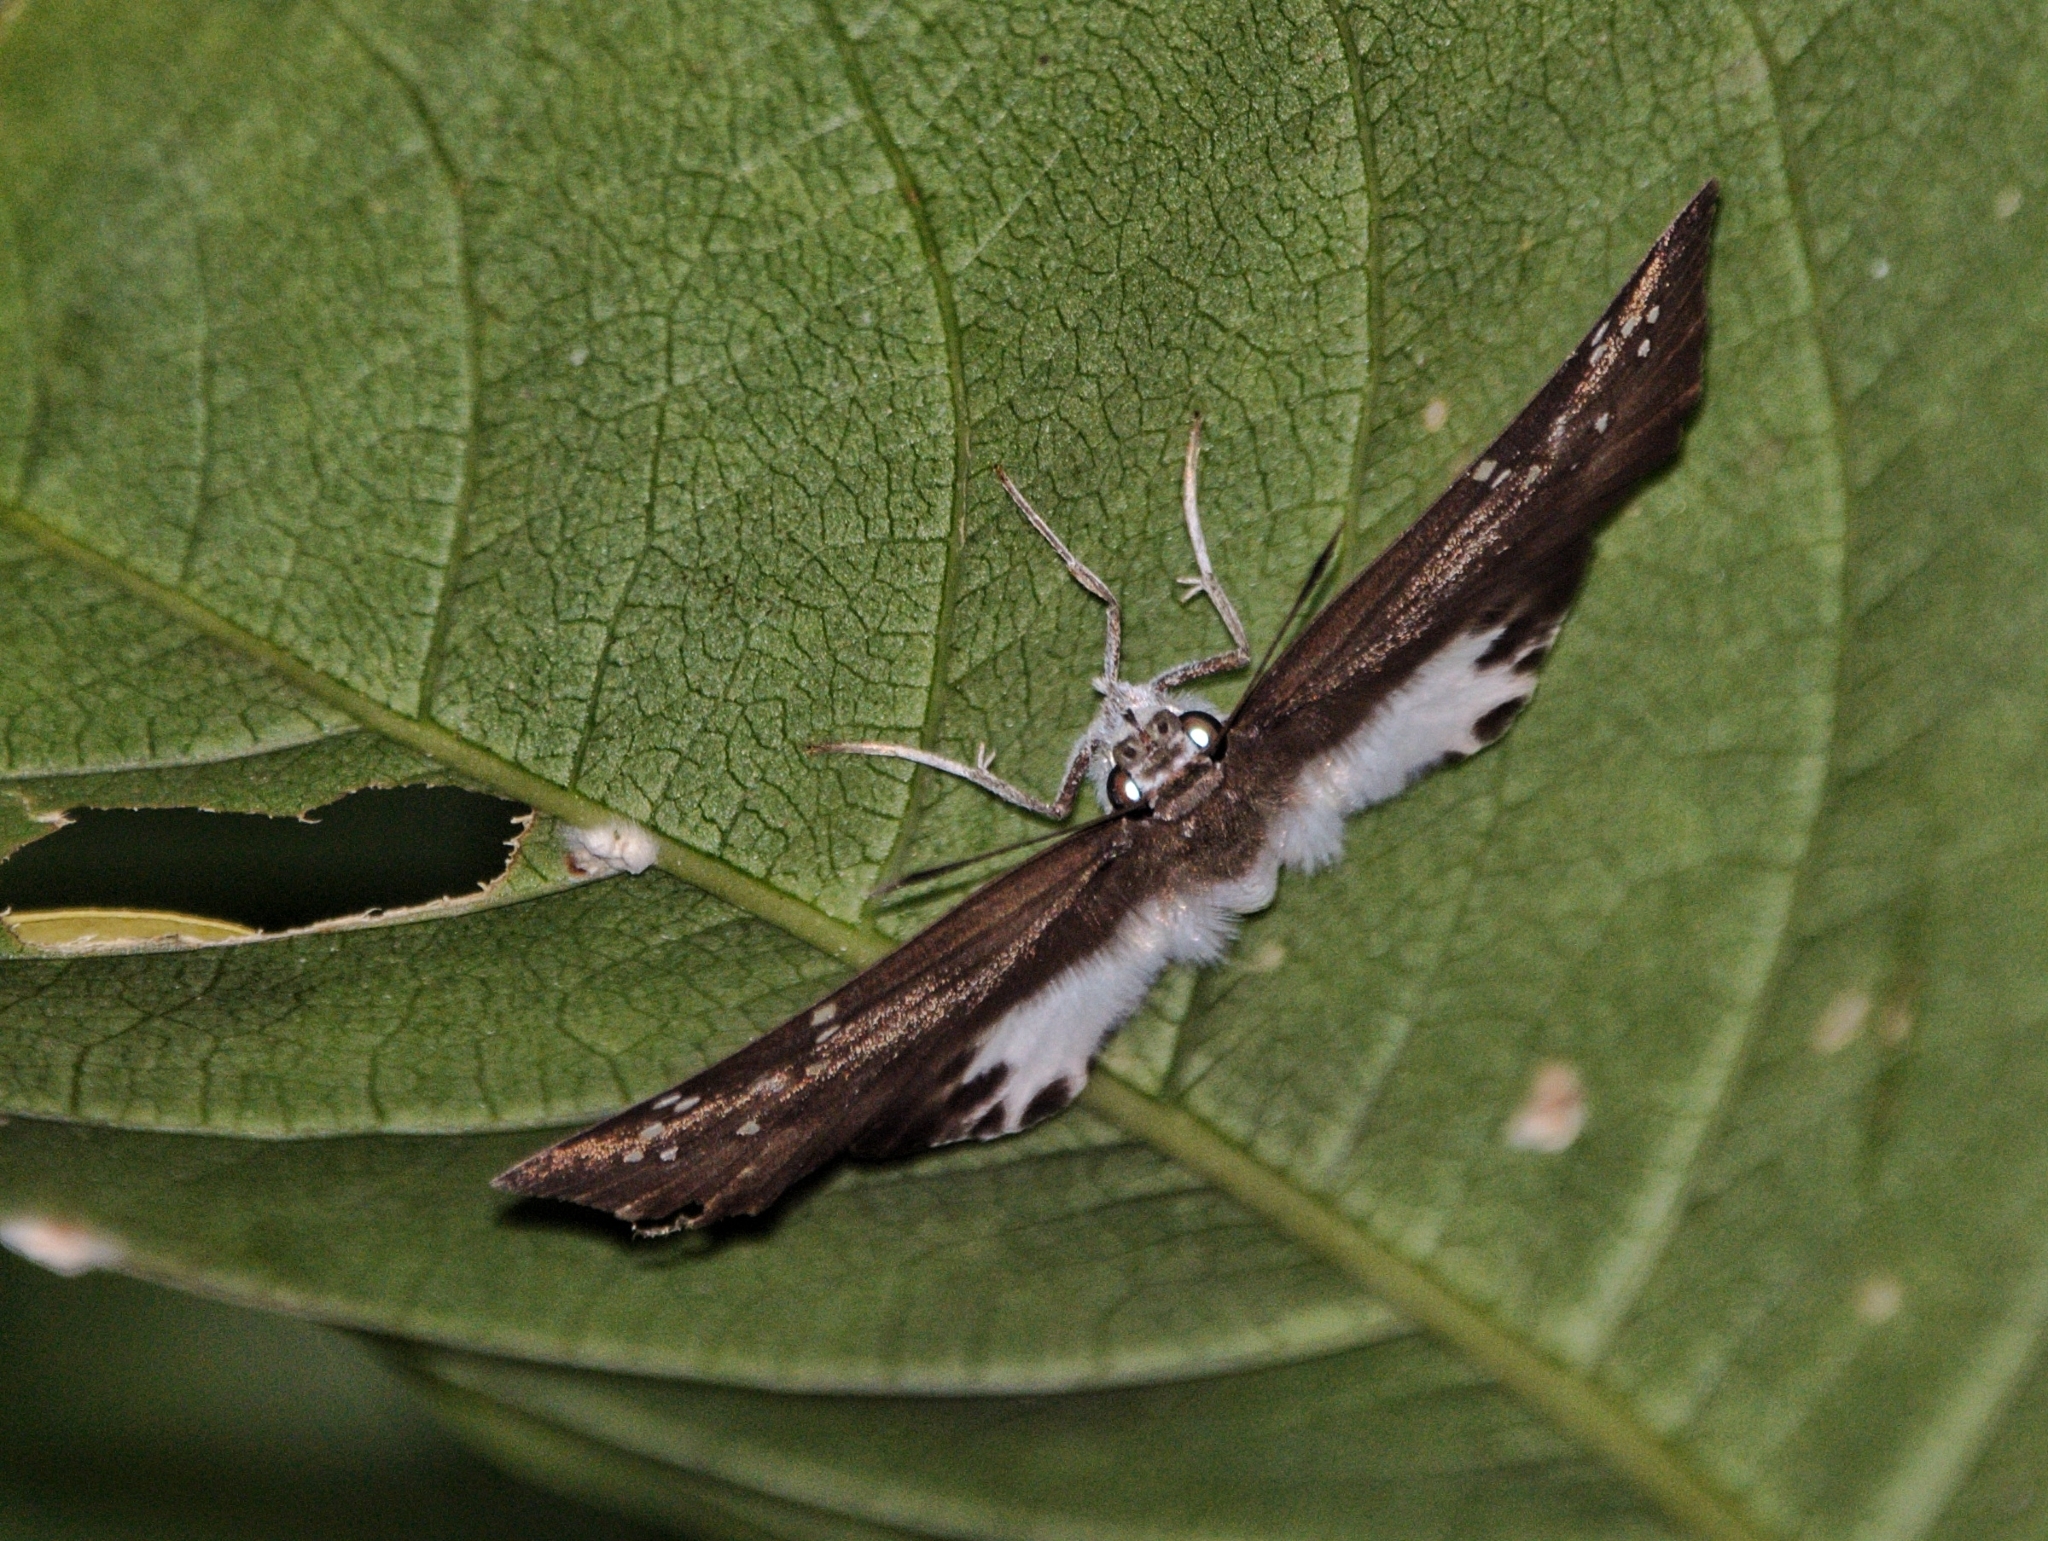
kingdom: Animalia
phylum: Arthropoda
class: Insecta
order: Lepidoptera
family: Hesperiidae
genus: Tagiades
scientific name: Tagiades litigiosa
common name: Water snow flat
